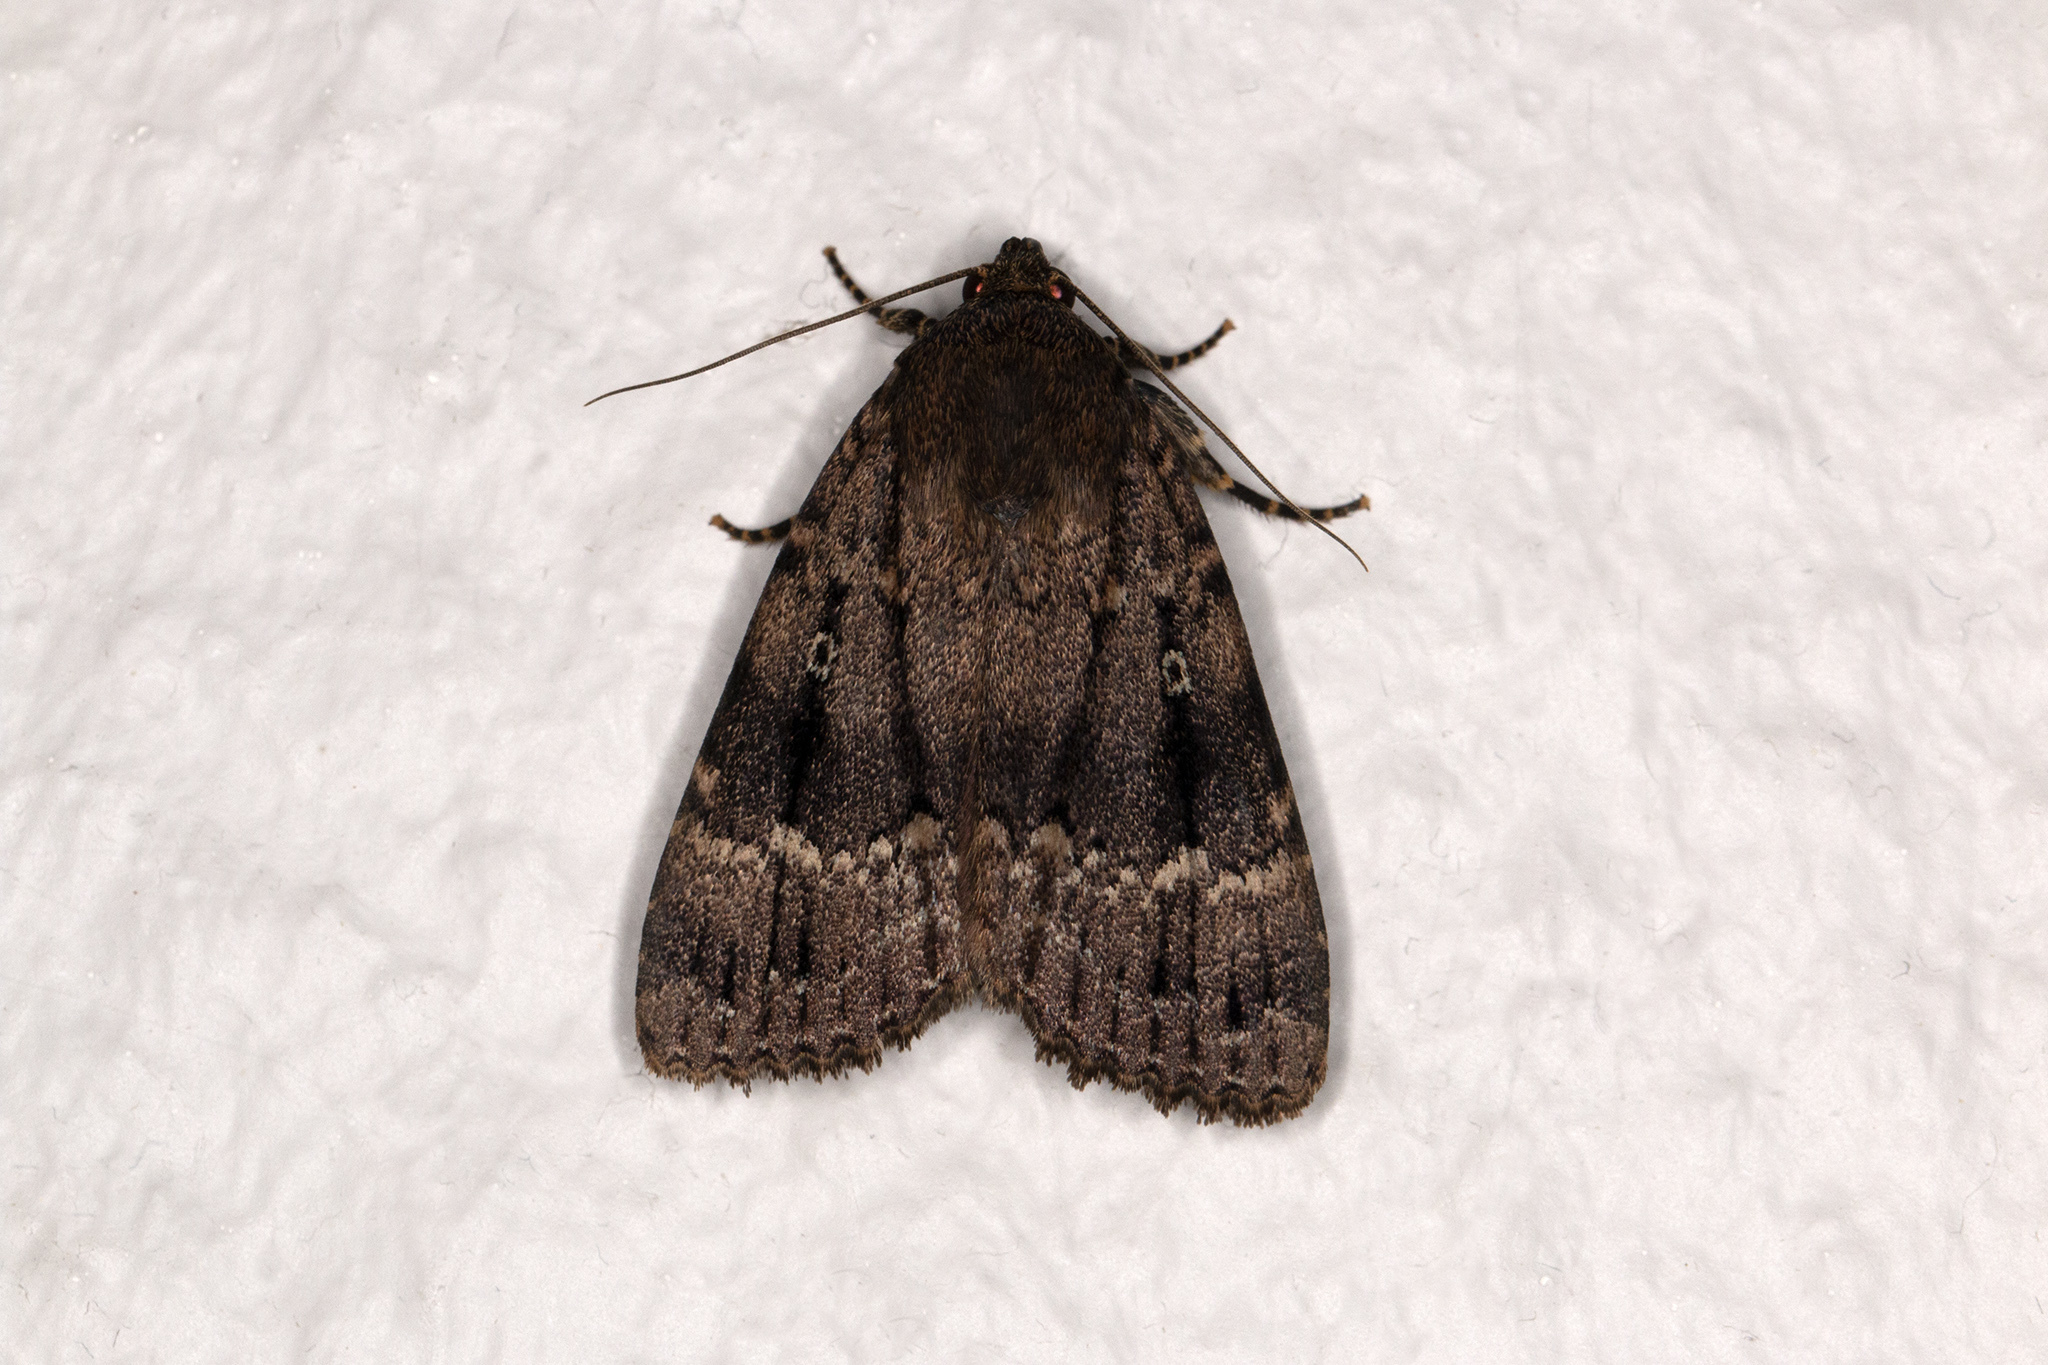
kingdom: Animalia
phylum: Arthropoda
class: Insecta
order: Lepidoptera
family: Noctuidae
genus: Amphipyra
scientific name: Amphipyra pyramidea
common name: Copper underwing
